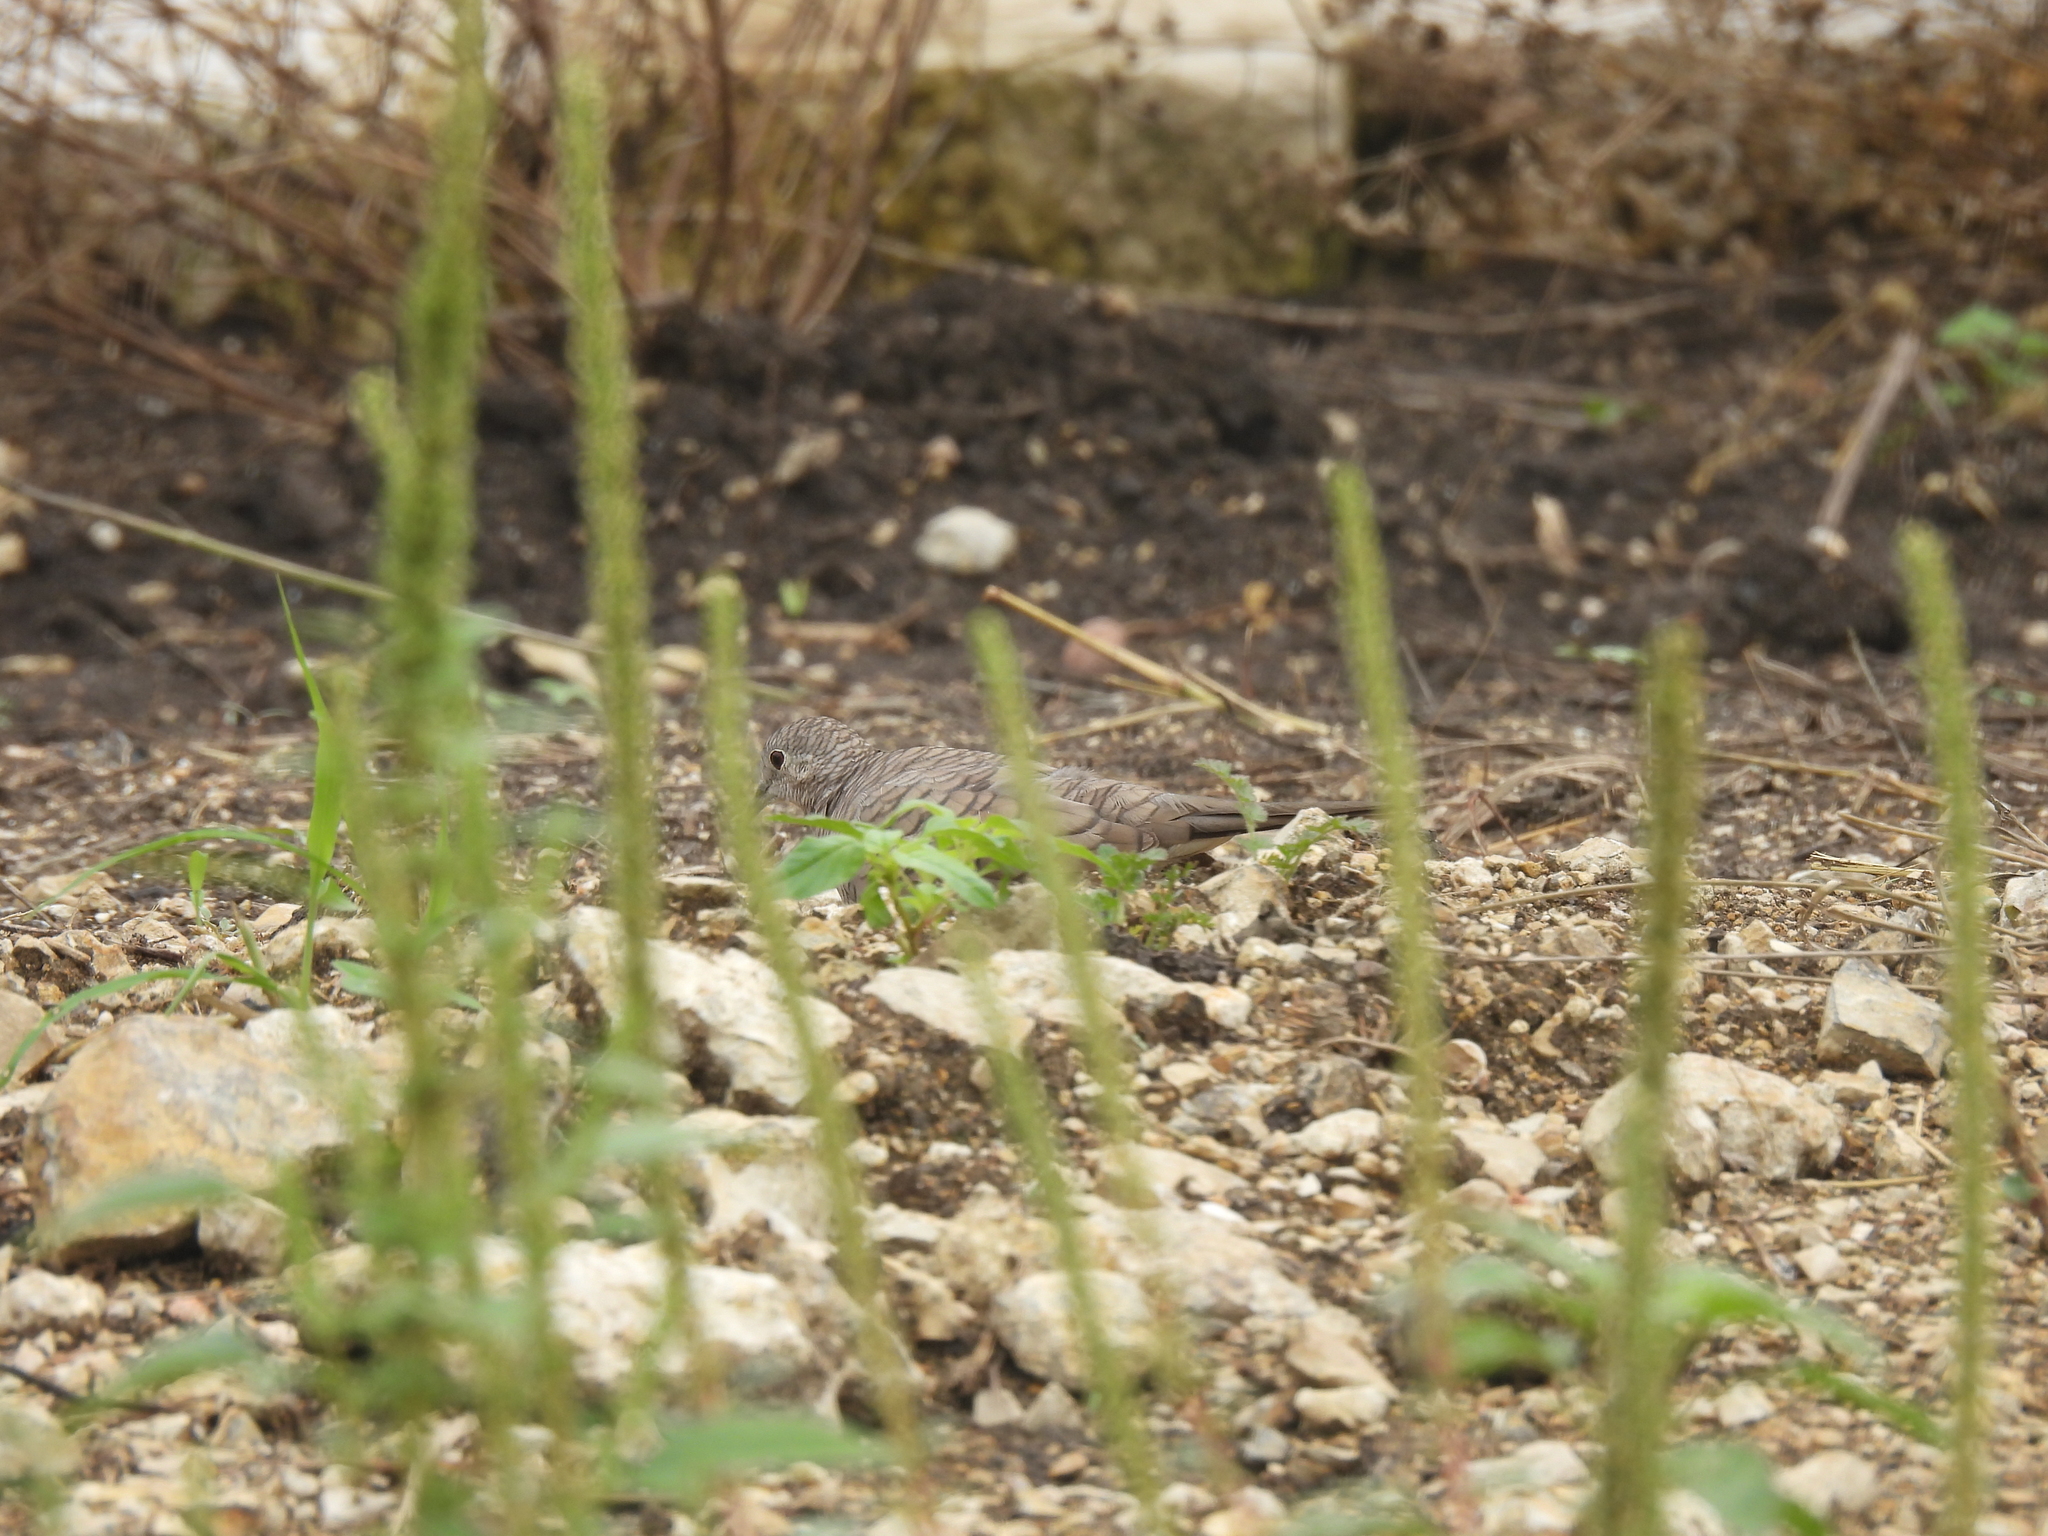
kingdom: Animalia
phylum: Chordata
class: Aves
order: Columbiformes
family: Columbidae
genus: Columbina
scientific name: Columbina inca
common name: Inca dove
